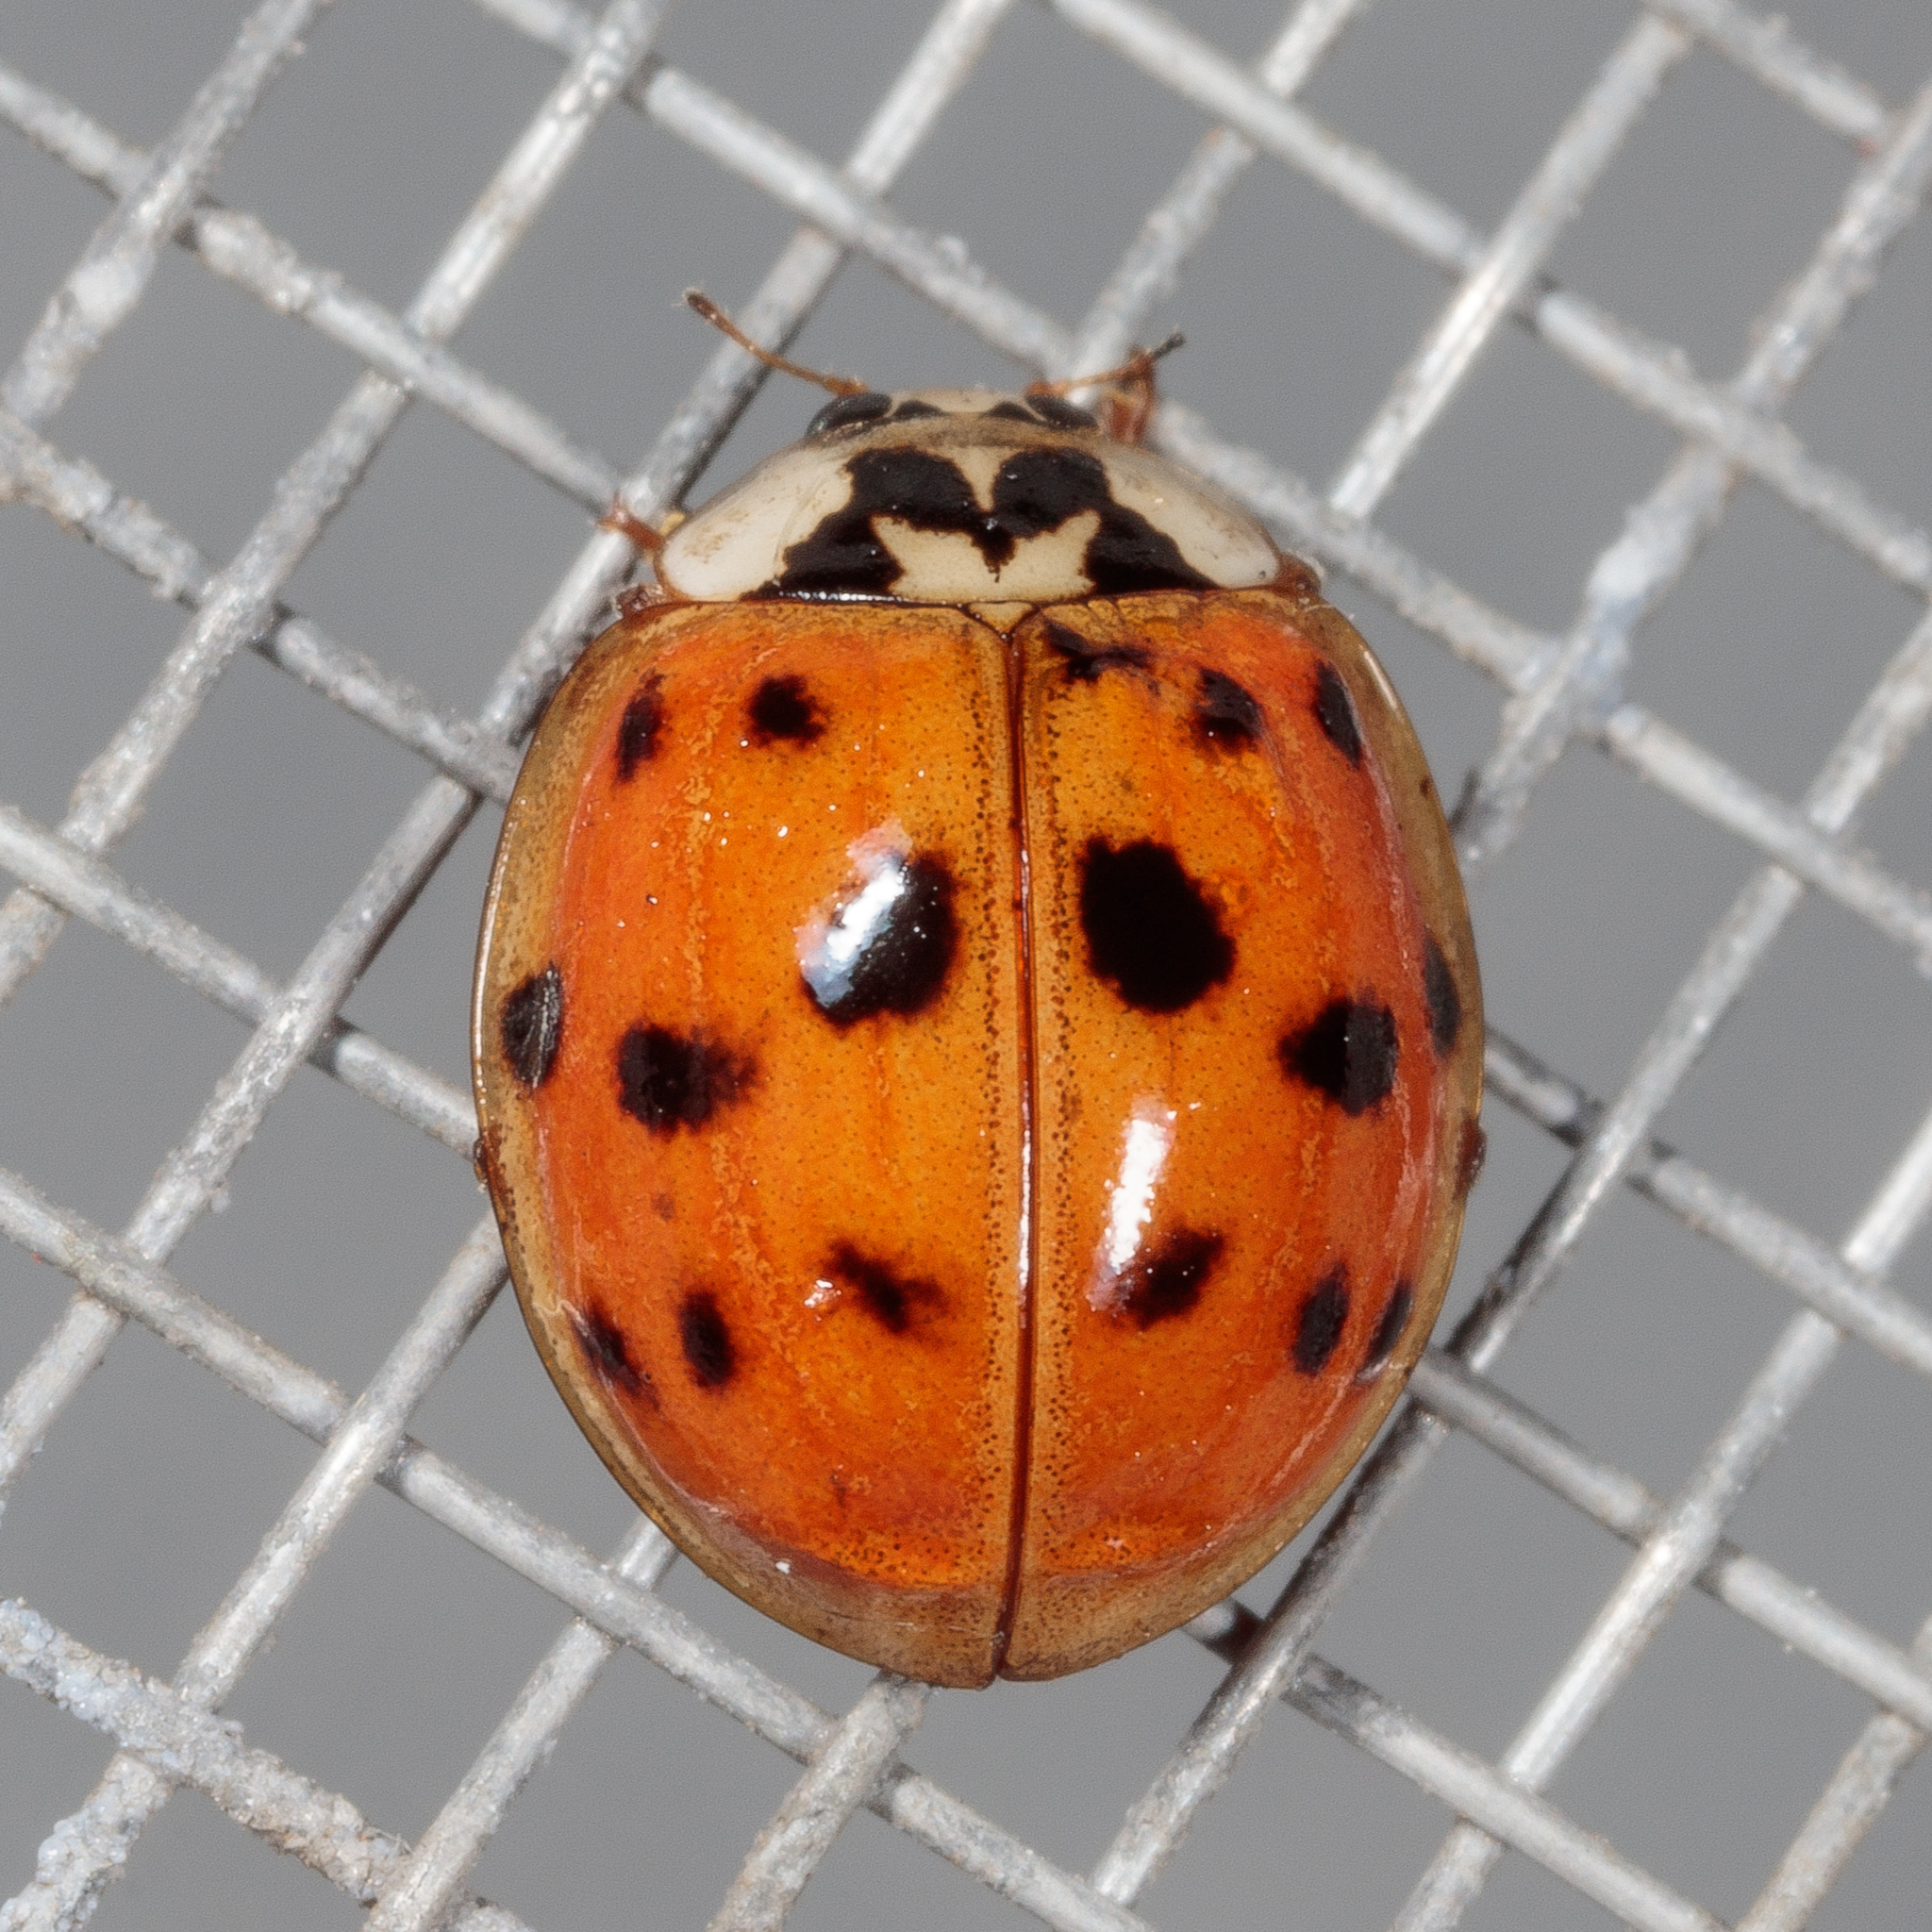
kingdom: Animalia
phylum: Arthropoda
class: Insecta
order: Coleoptera
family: Coccinellidae
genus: Harmonia
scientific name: Harmonia axyridis
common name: Harlequin ladybird
